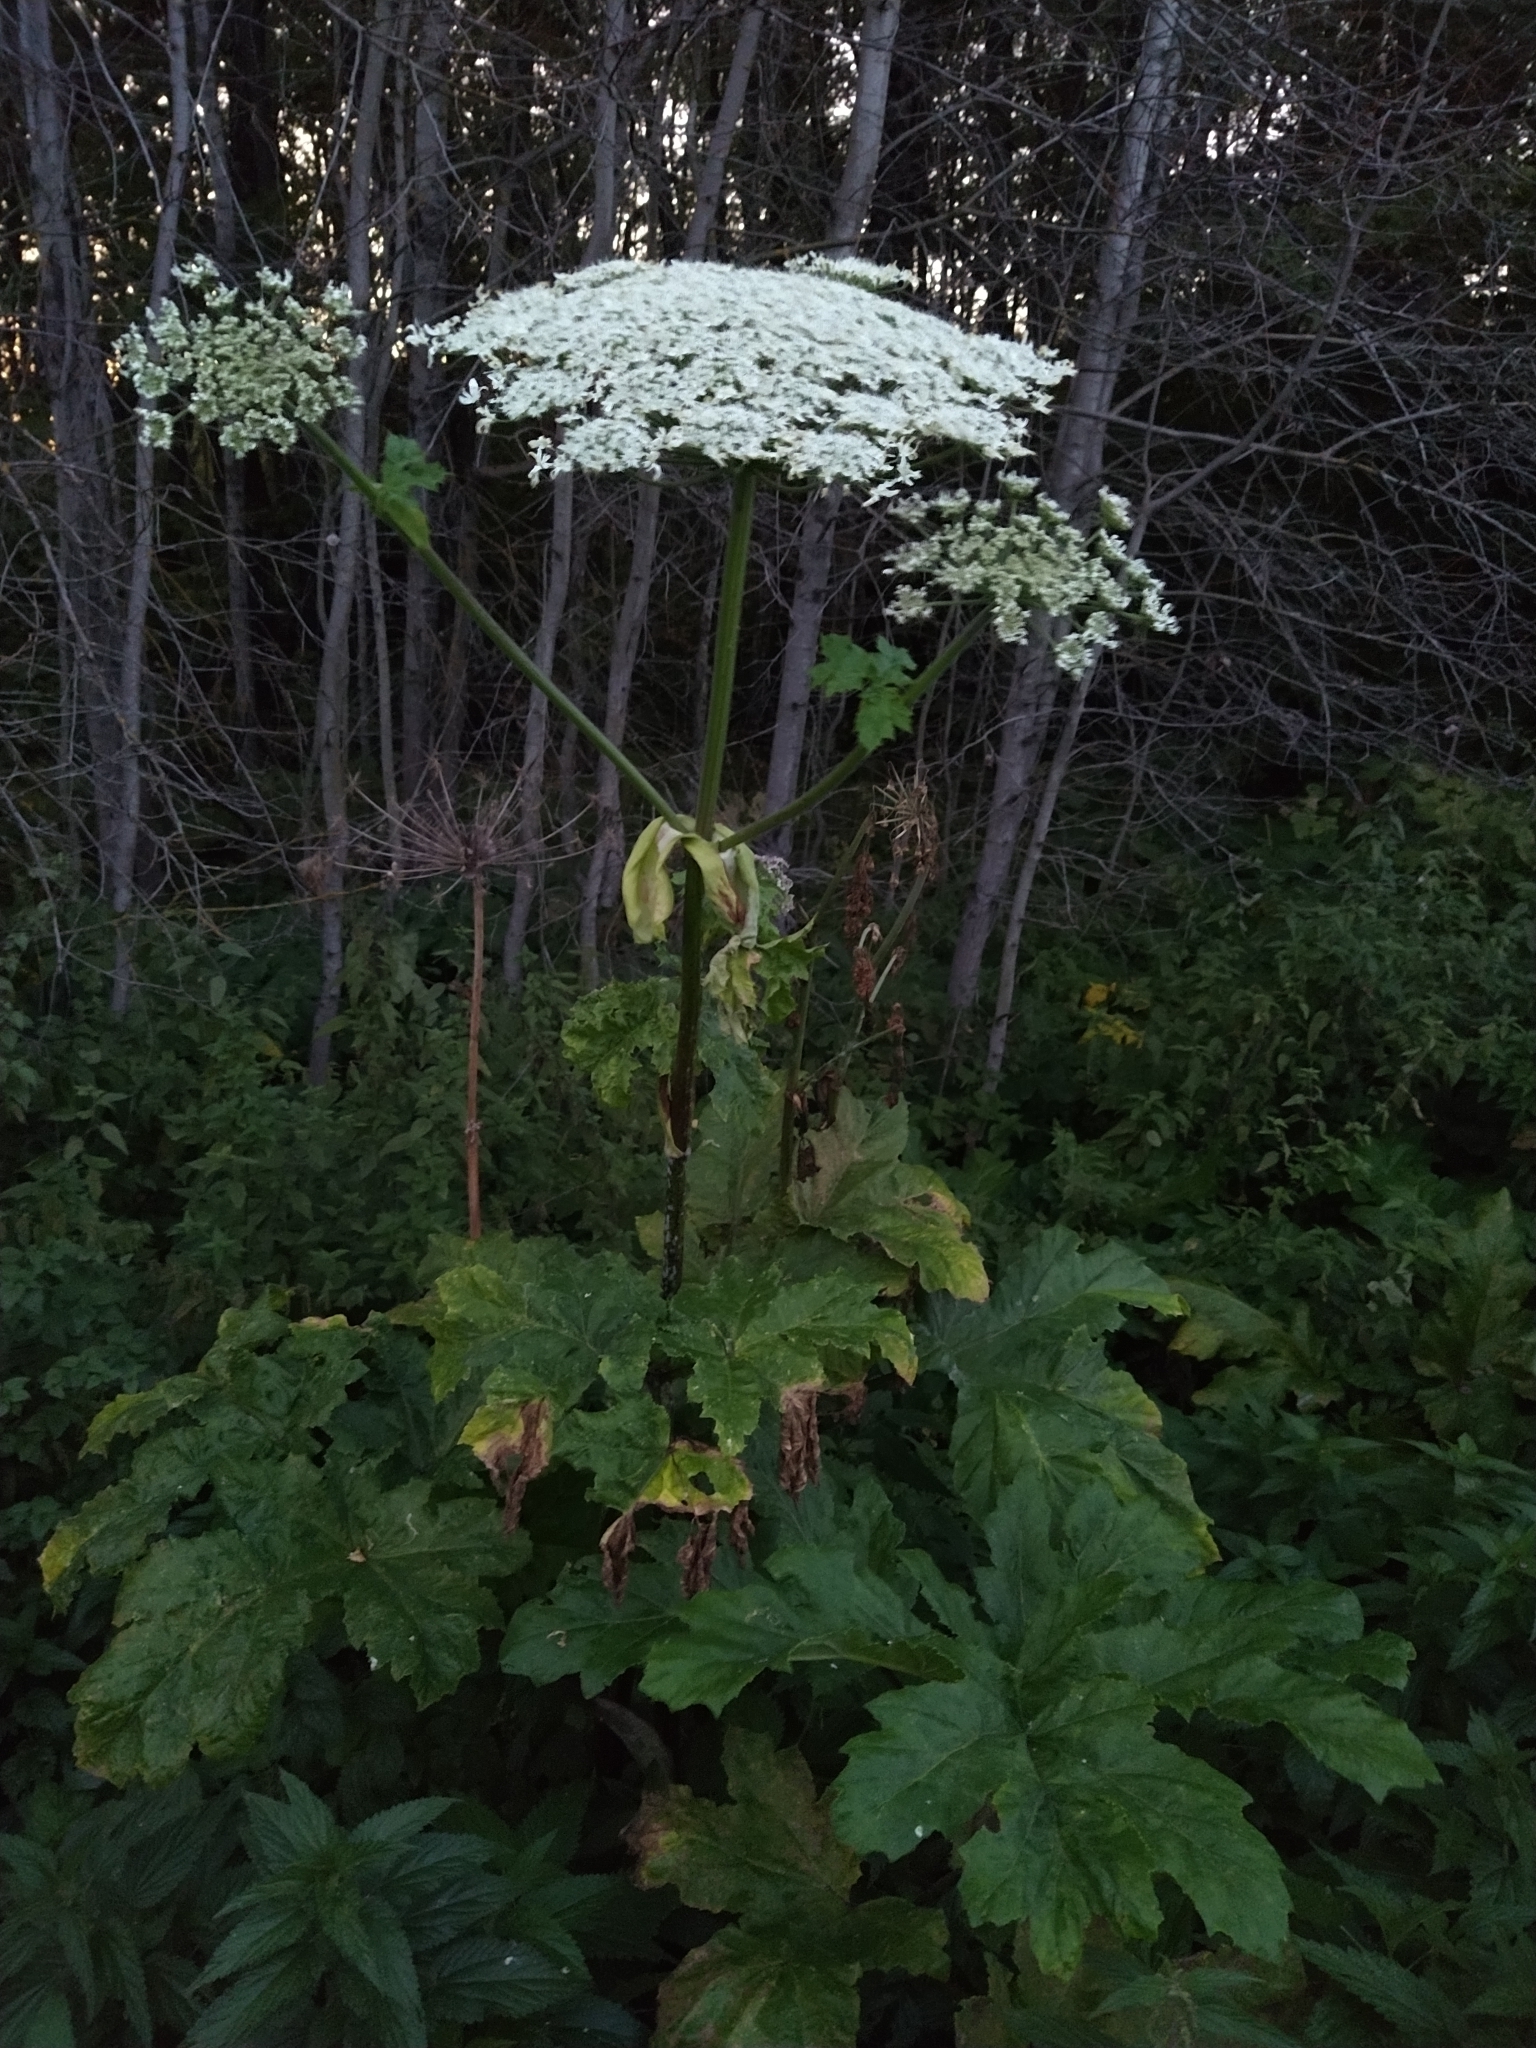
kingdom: Plantae
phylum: Tracheophyta
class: Magnoliopsida
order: Apiales
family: Apiaceae
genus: Heracleum
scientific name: Heracleum sosnowskyi
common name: Sosnowsky's hogweed
